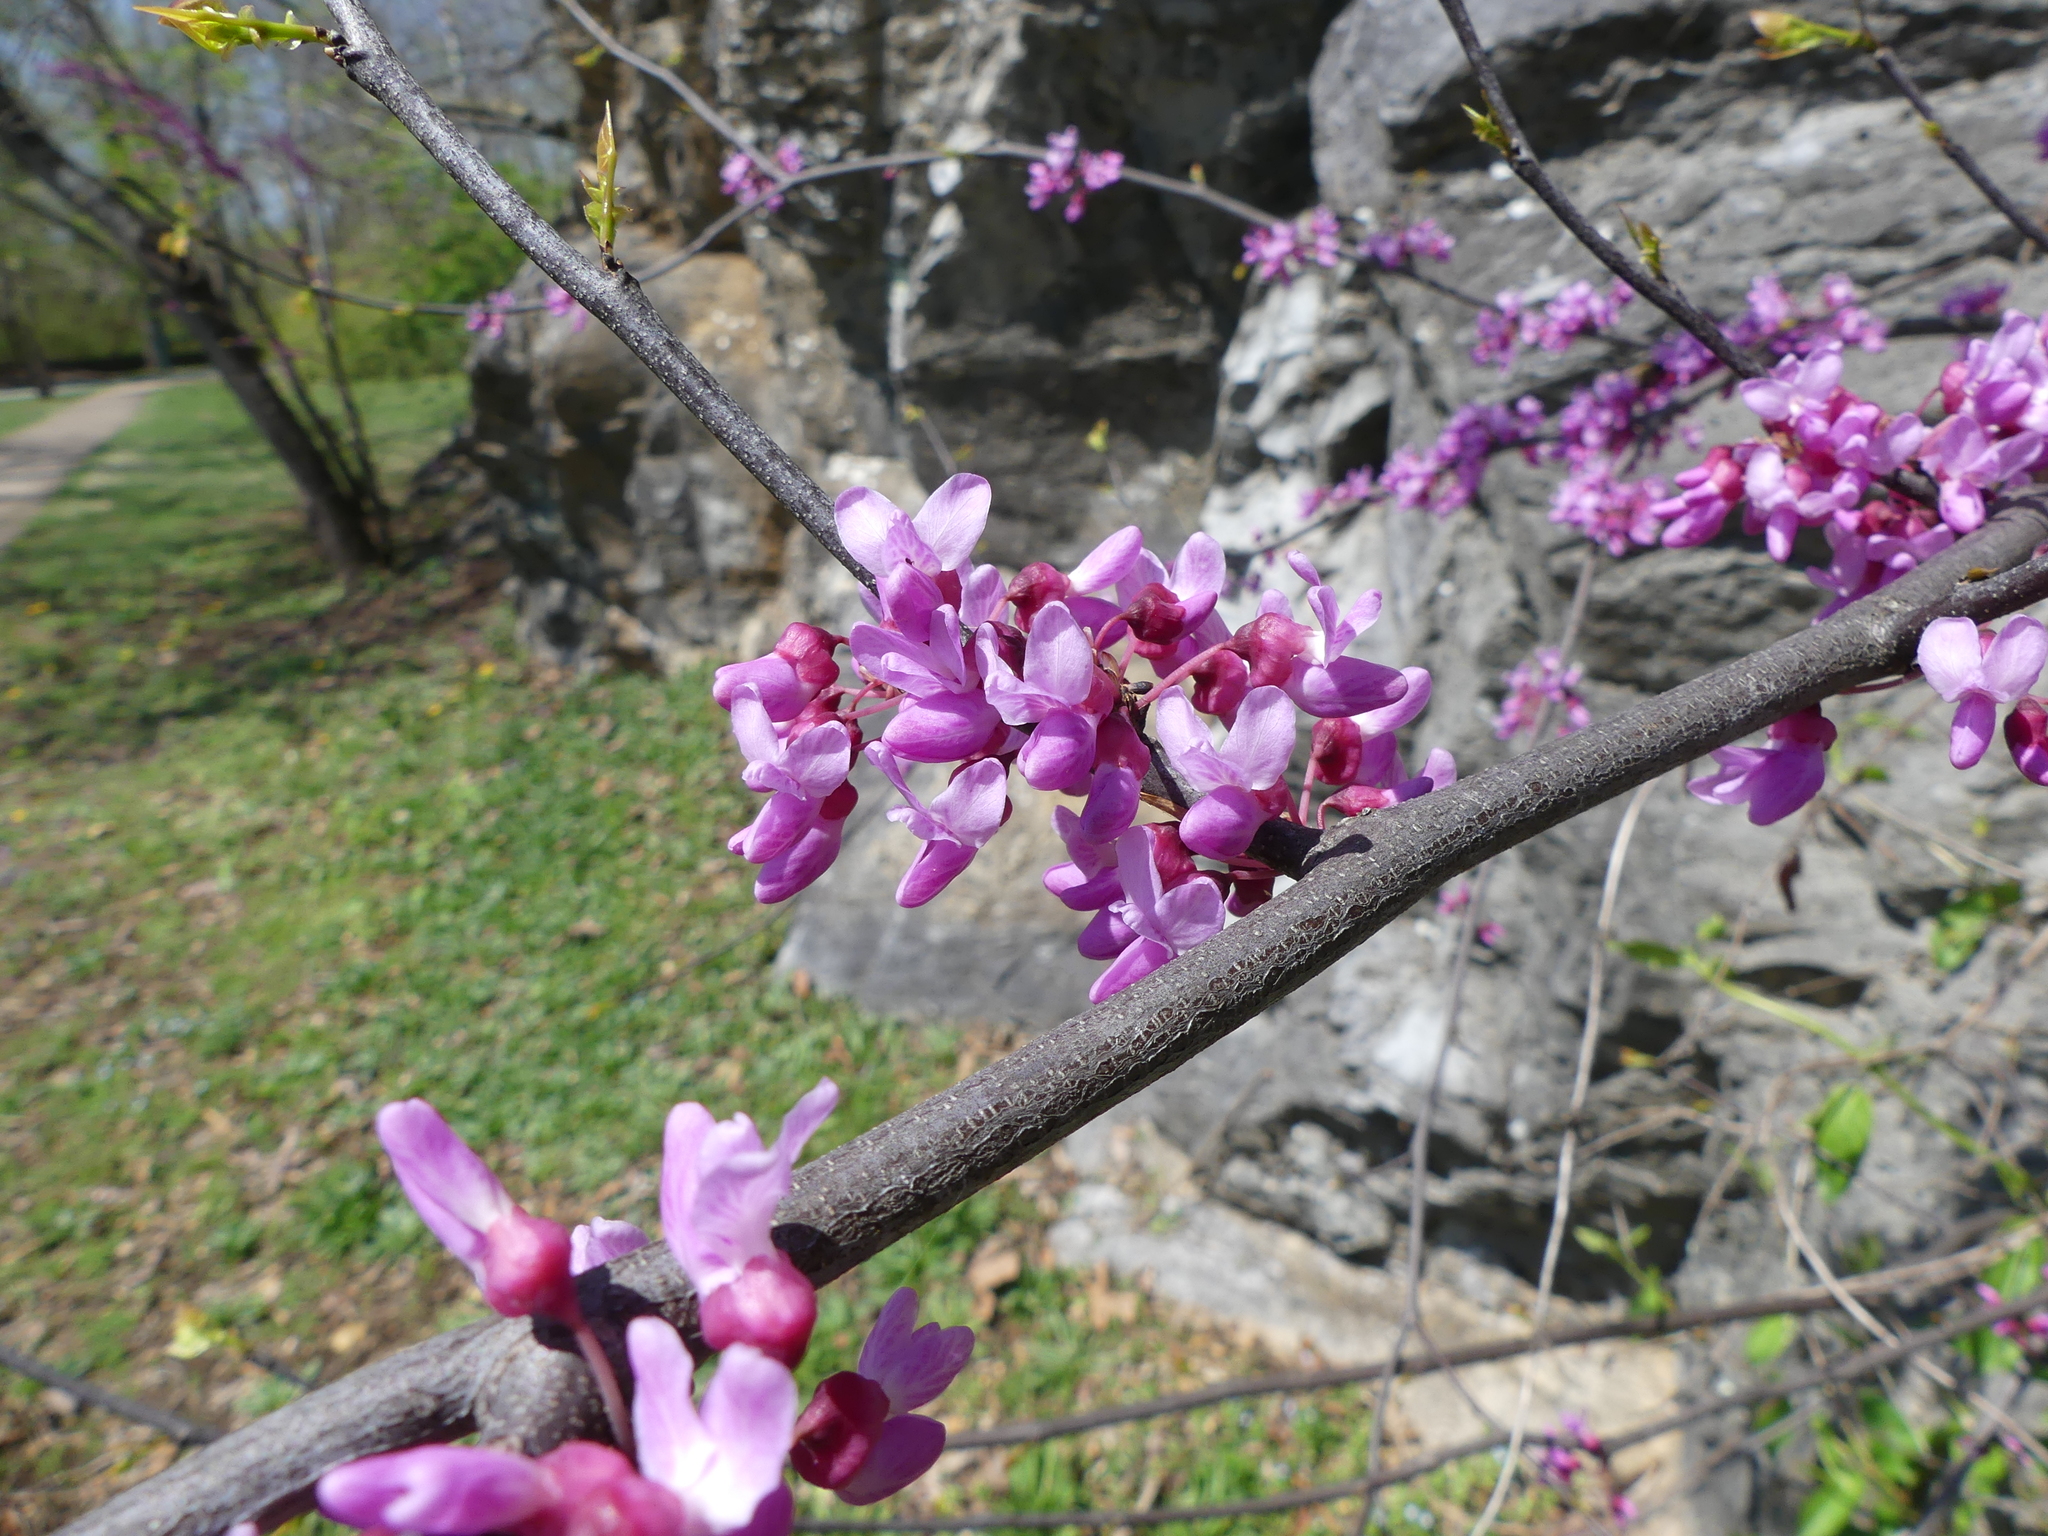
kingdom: Plantae
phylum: Tracheophyta
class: Magnoliopsida
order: Fabales
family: Fabaceae
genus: Cercis
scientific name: Cercis canadensis
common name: Eastern redbud
